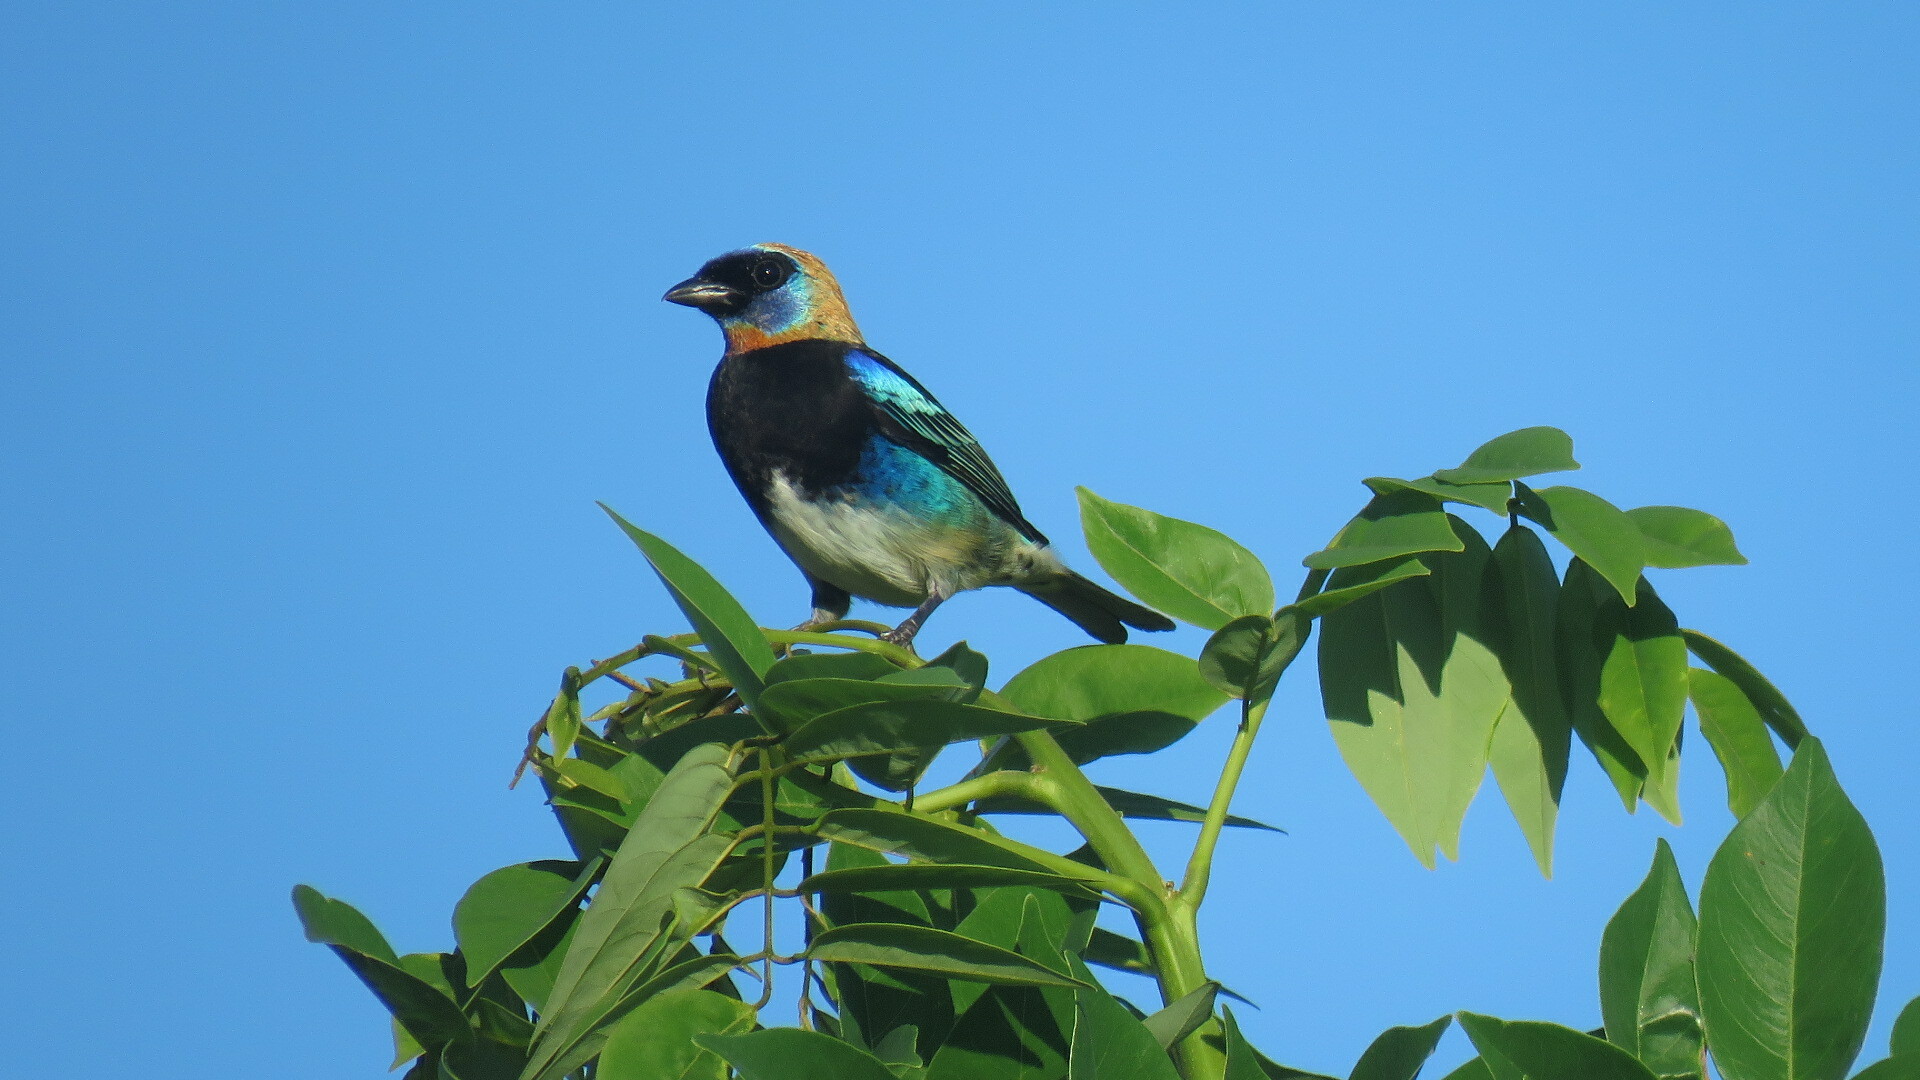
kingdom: Animalia
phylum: Chordata
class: Aves
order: Passeriformes
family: Thraupidae
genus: Stilpnia
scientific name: Stilpnia larvata
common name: Golden-hooded tanager
